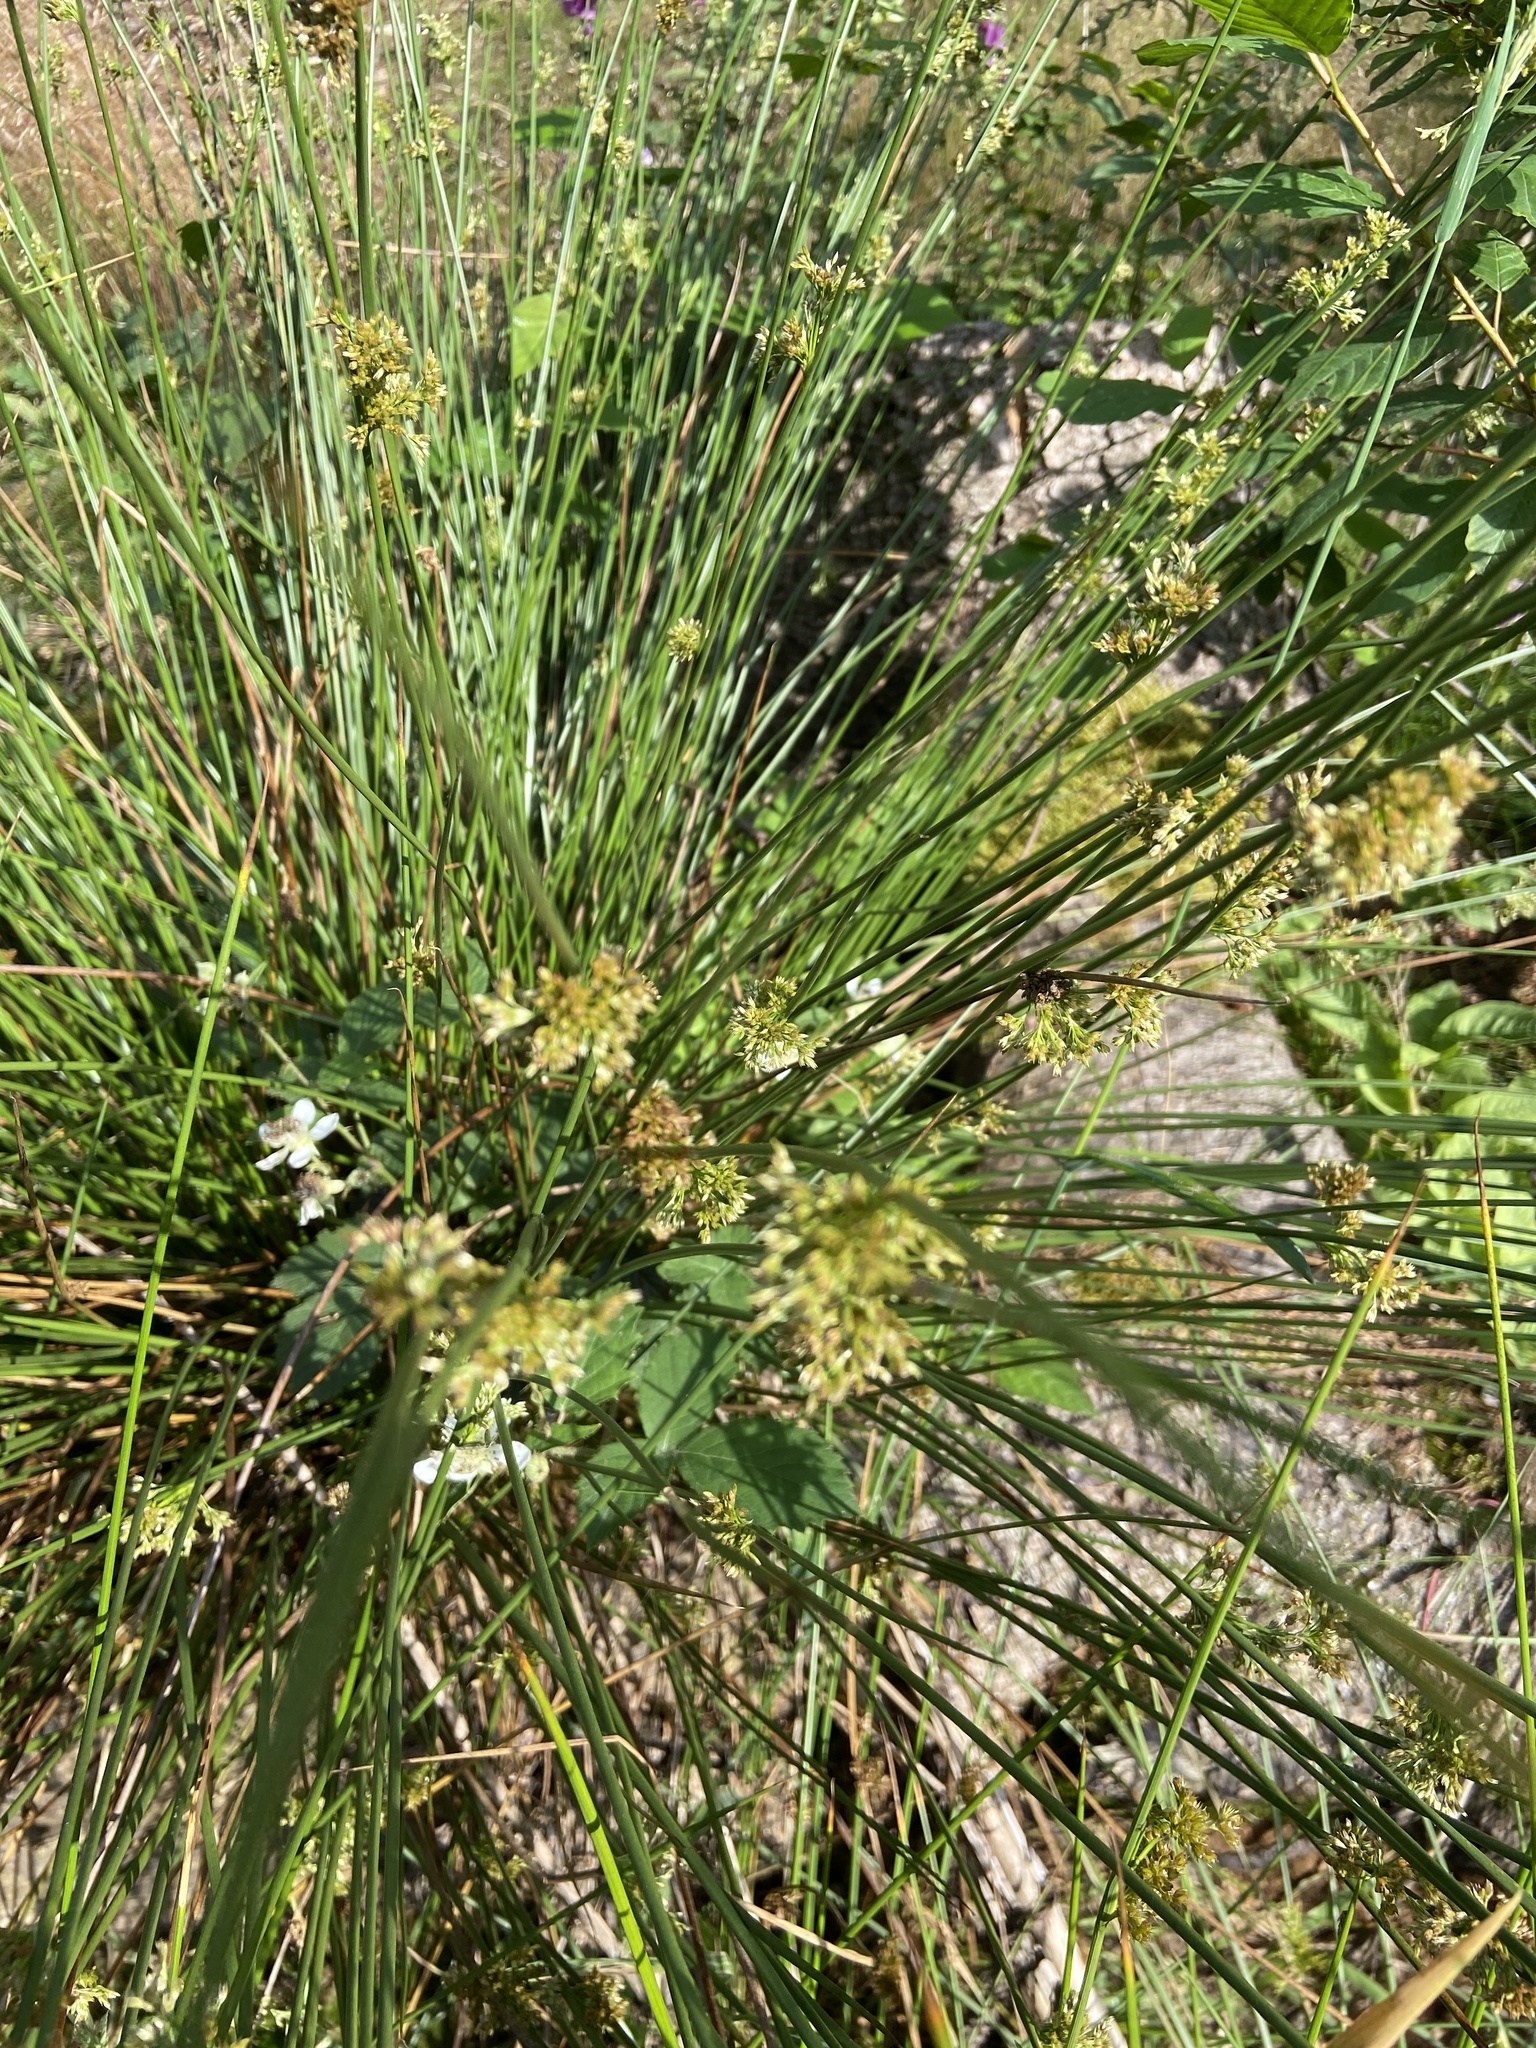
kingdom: Plantae
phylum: Tracheophyta
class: Liliopsida
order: Poales
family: Juncaceae
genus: Juncus
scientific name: Juncus effusus
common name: Soft rush
